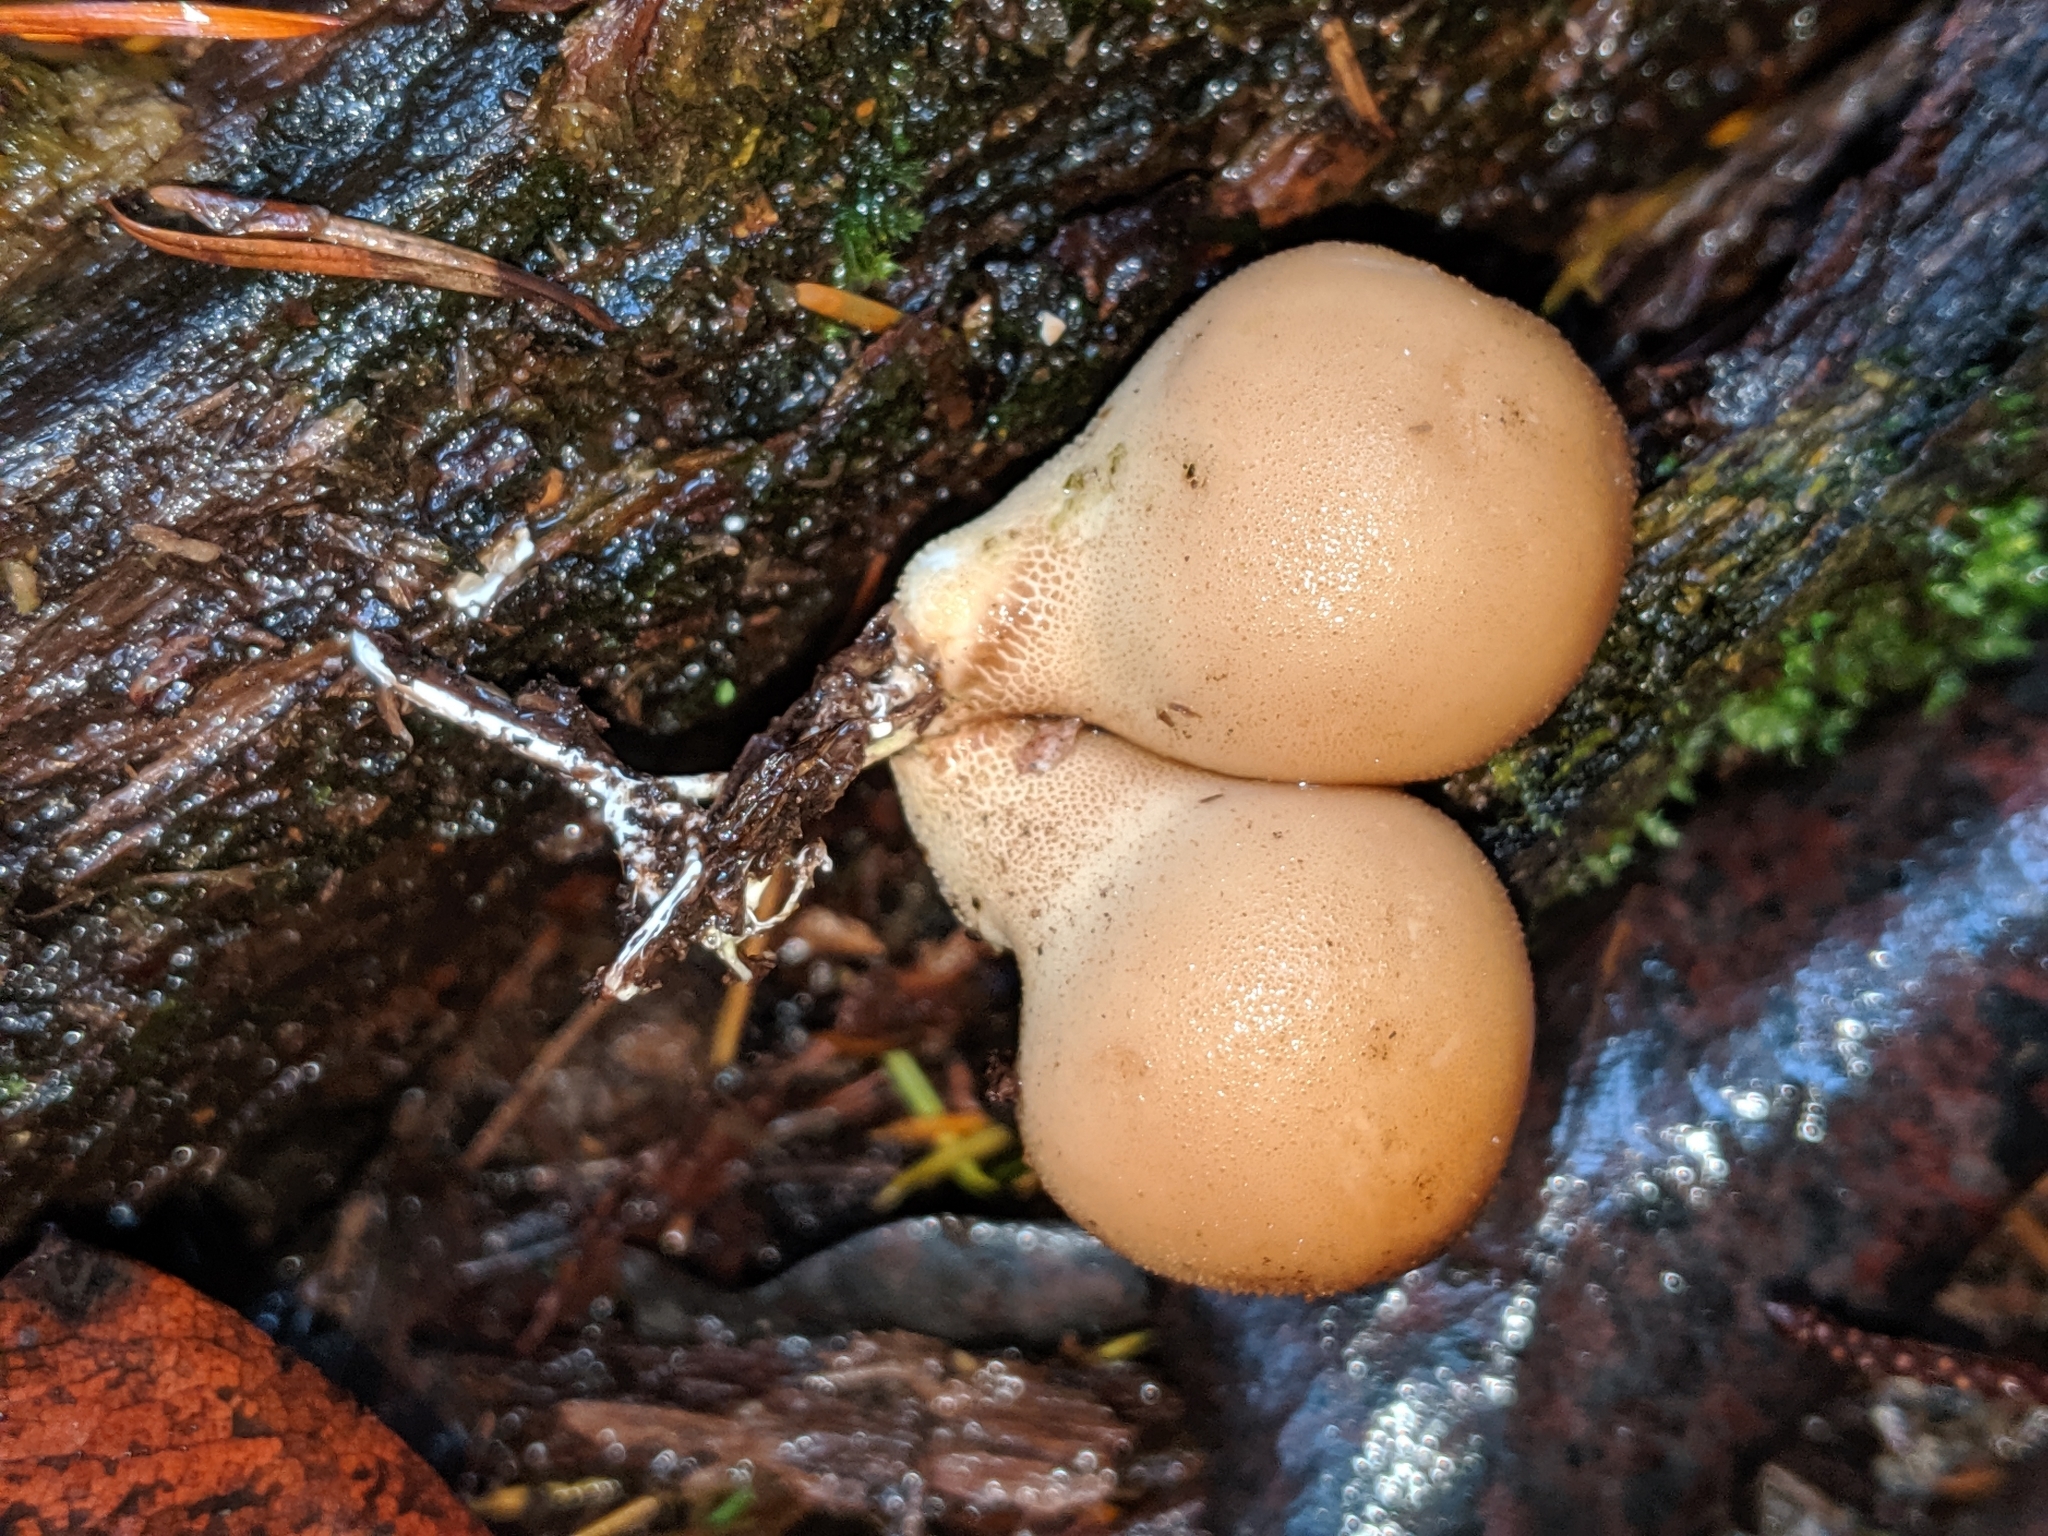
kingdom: Fungi
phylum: Basidiomycota
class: Agaricomycetes
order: Agaricales
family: Lycoperdaceae
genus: Apioperdon
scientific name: Apioperdon pyriforme
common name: Pear-shaped puffball
